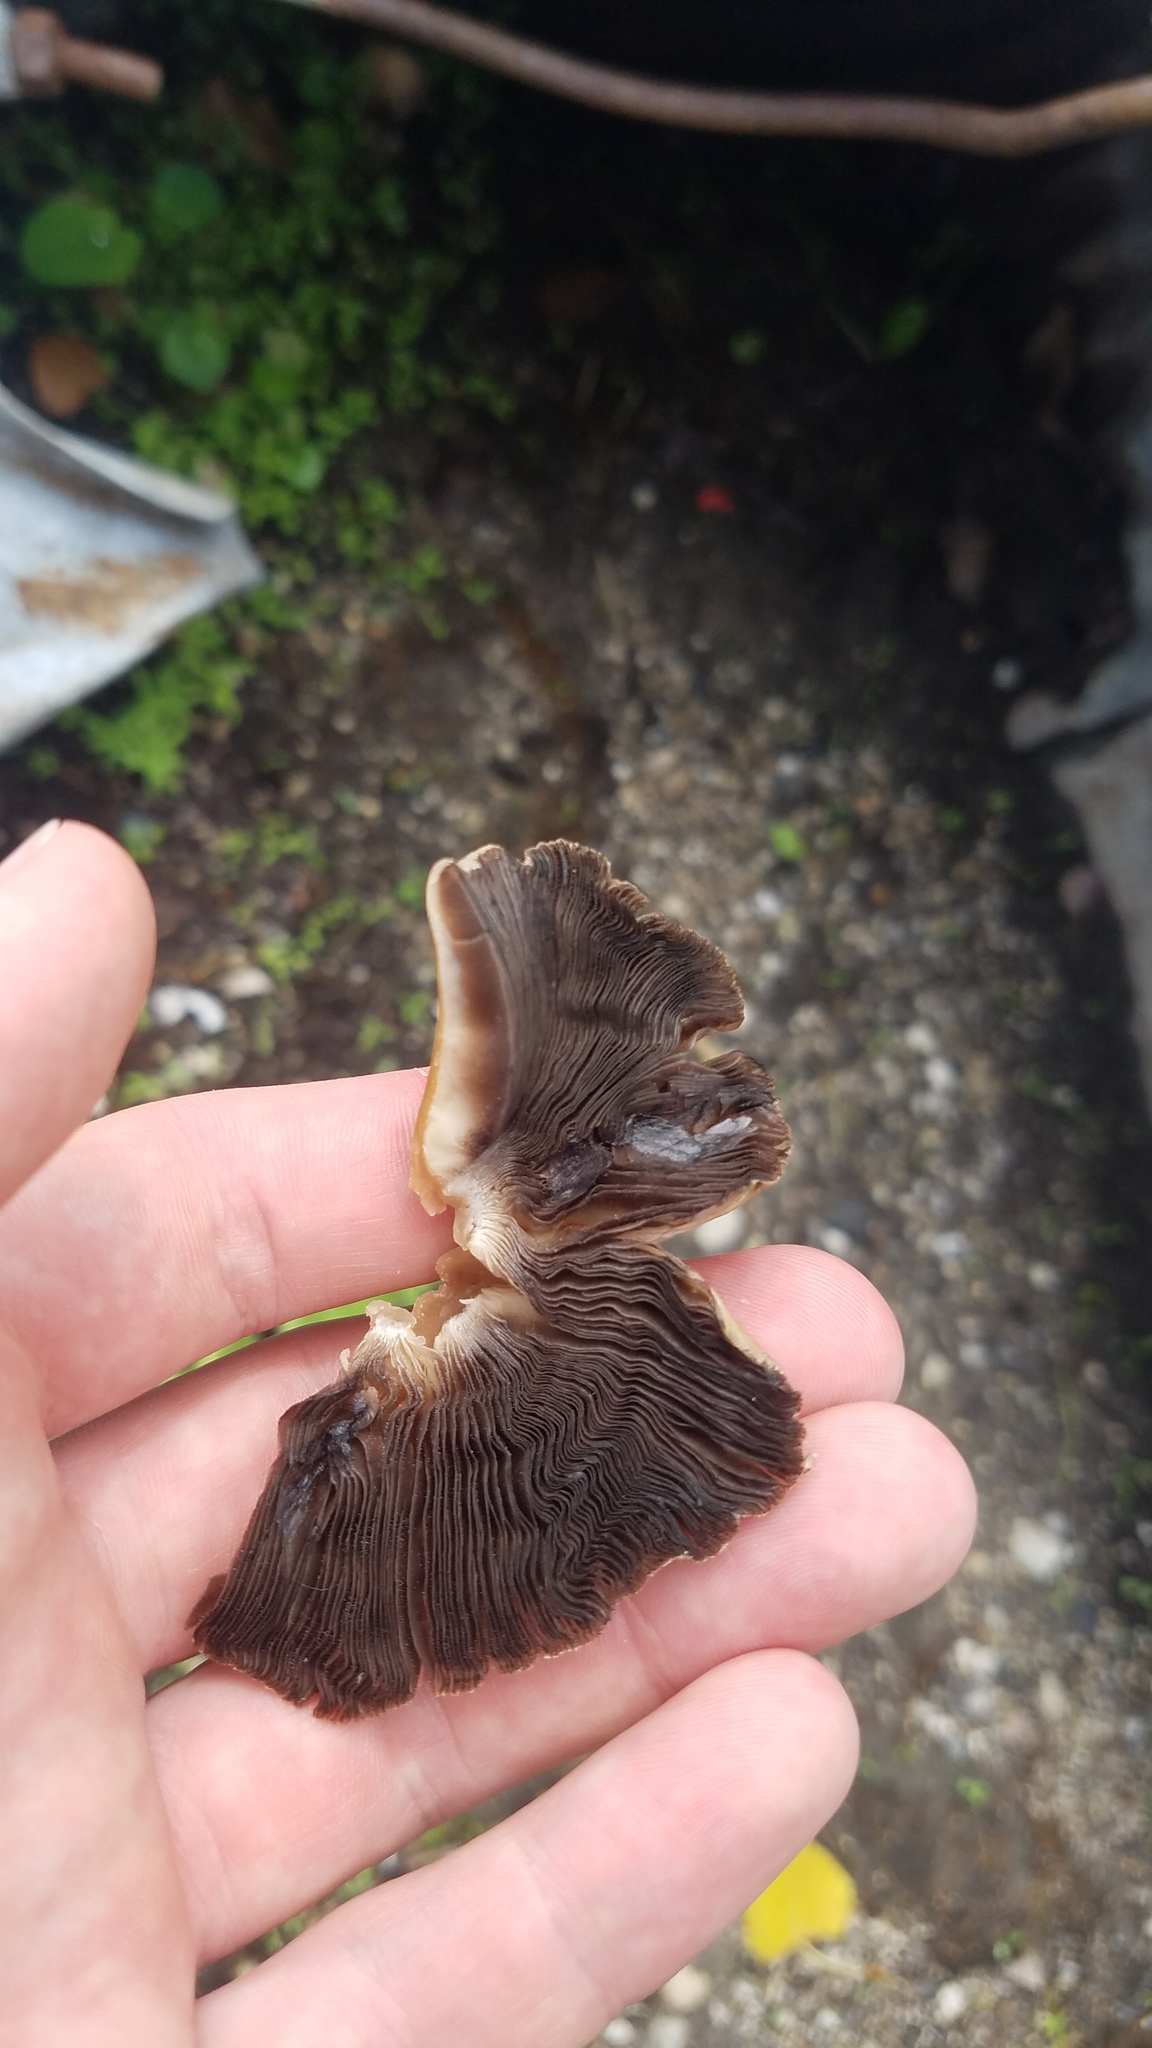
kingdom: Fungi
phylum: Basidiomycota
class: Agaricomycetes
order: Agaricales
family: Psathyrellaceae
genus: Coprinellus
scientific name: Coprinellus micaceus
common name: Glistening ink-cap
